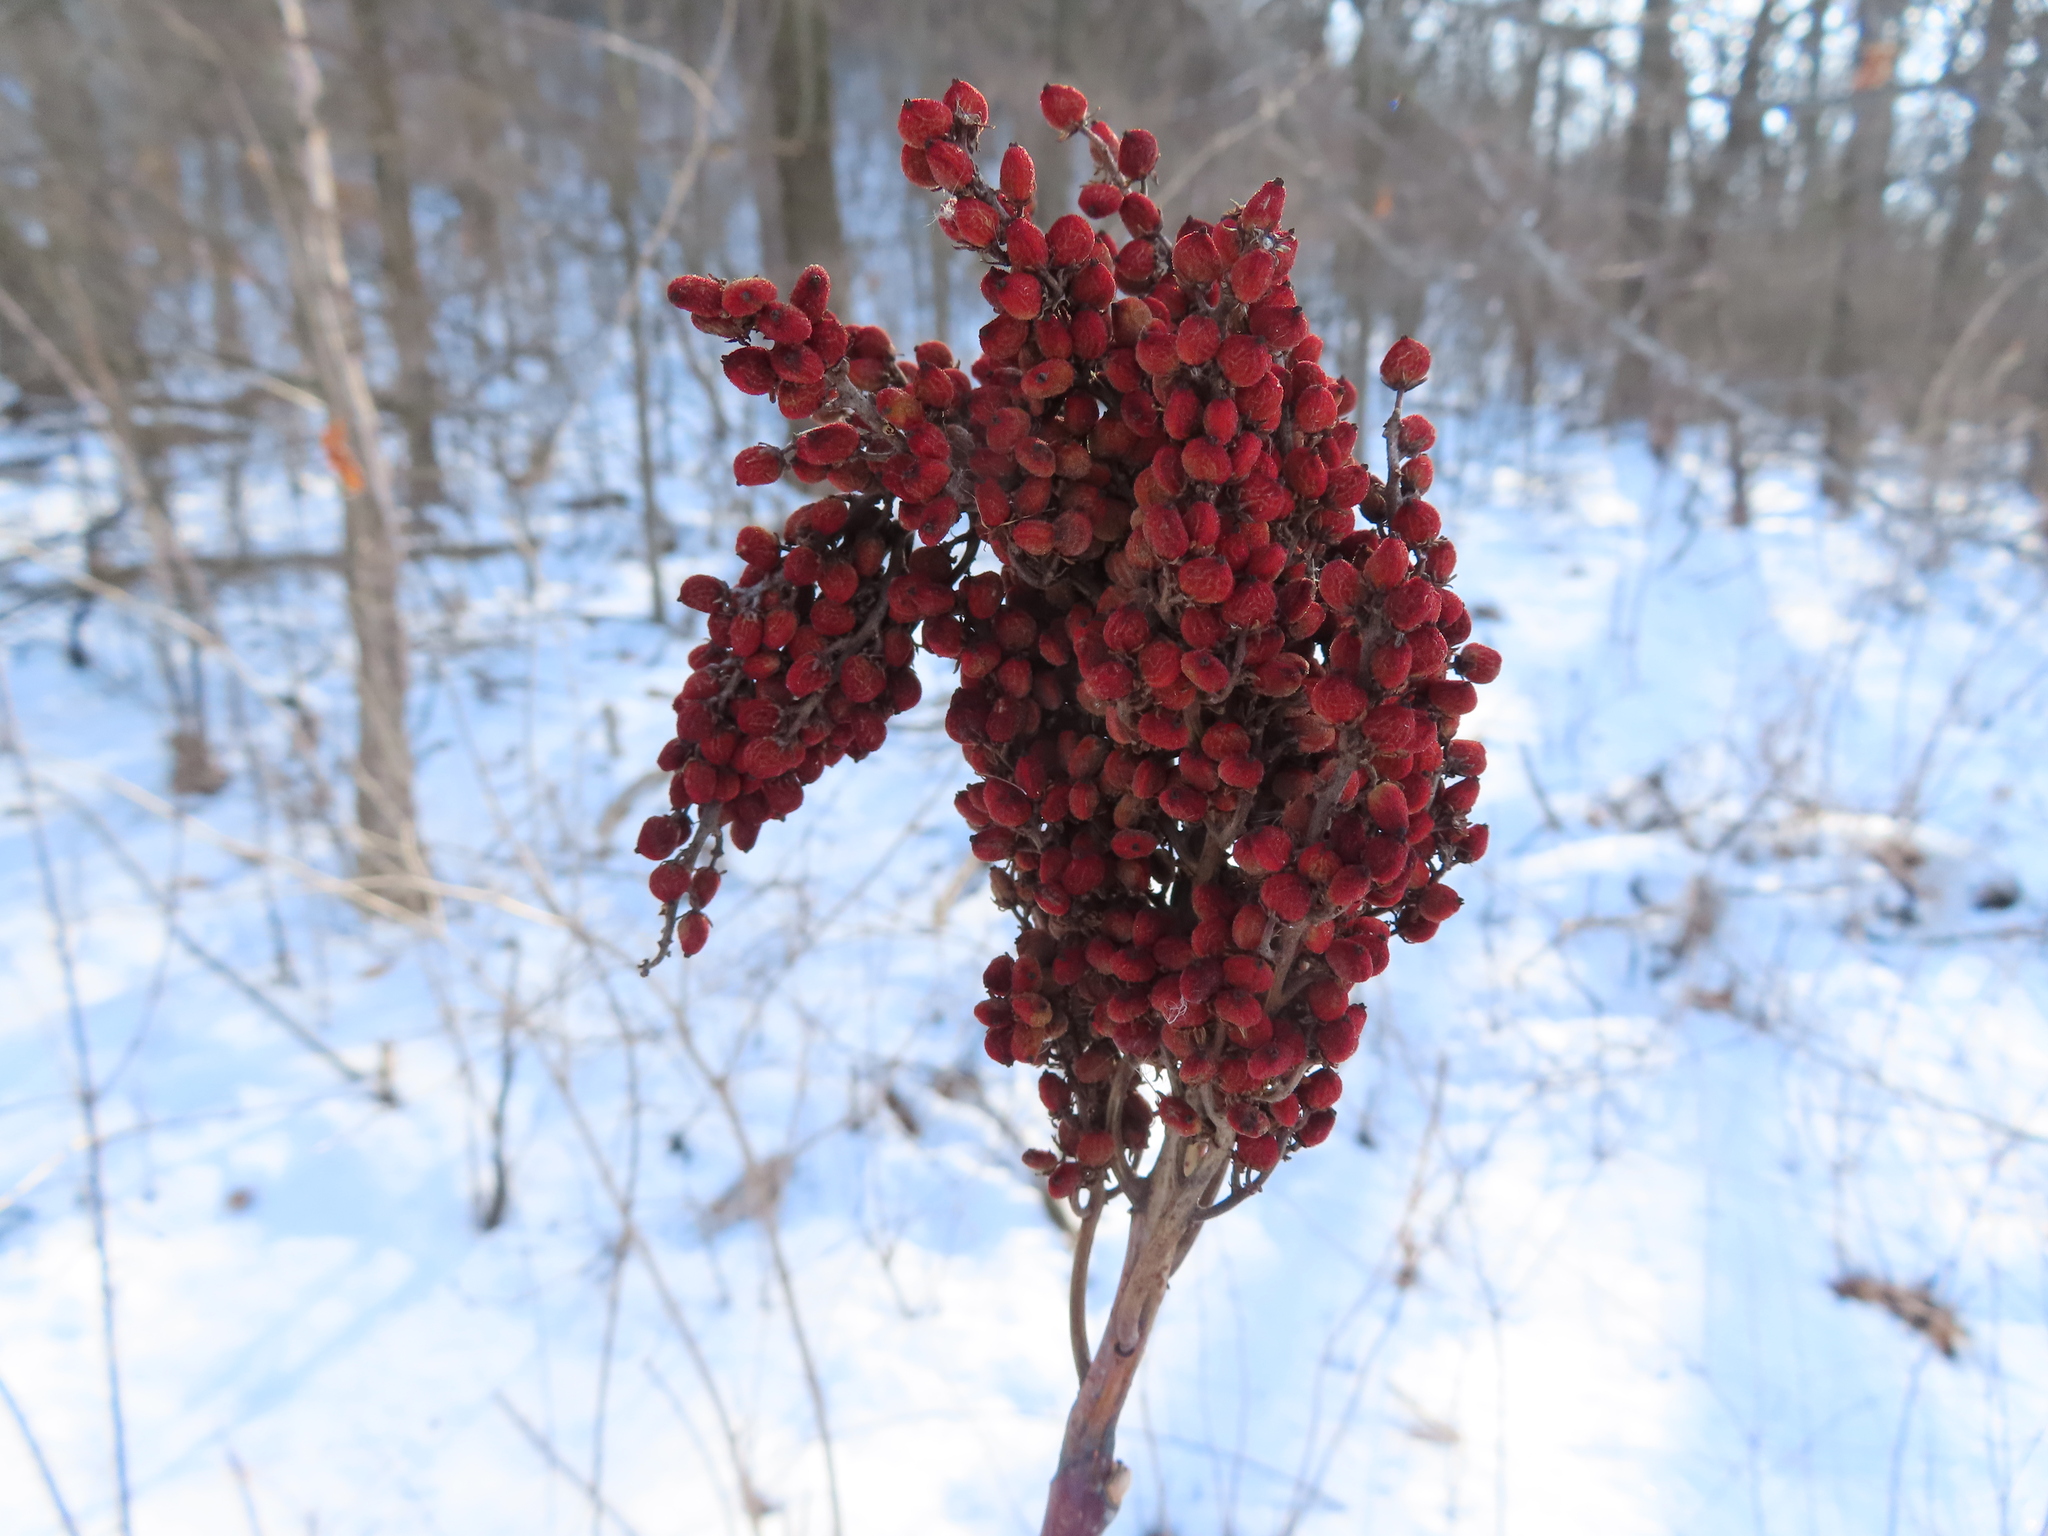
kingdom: Plantae
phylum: Tracheophyta
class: Magnoliopsida
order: Sapindales
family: Anacardiaceae
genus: Rhus
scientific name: Rhus glabra
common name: Scarlet sumac
